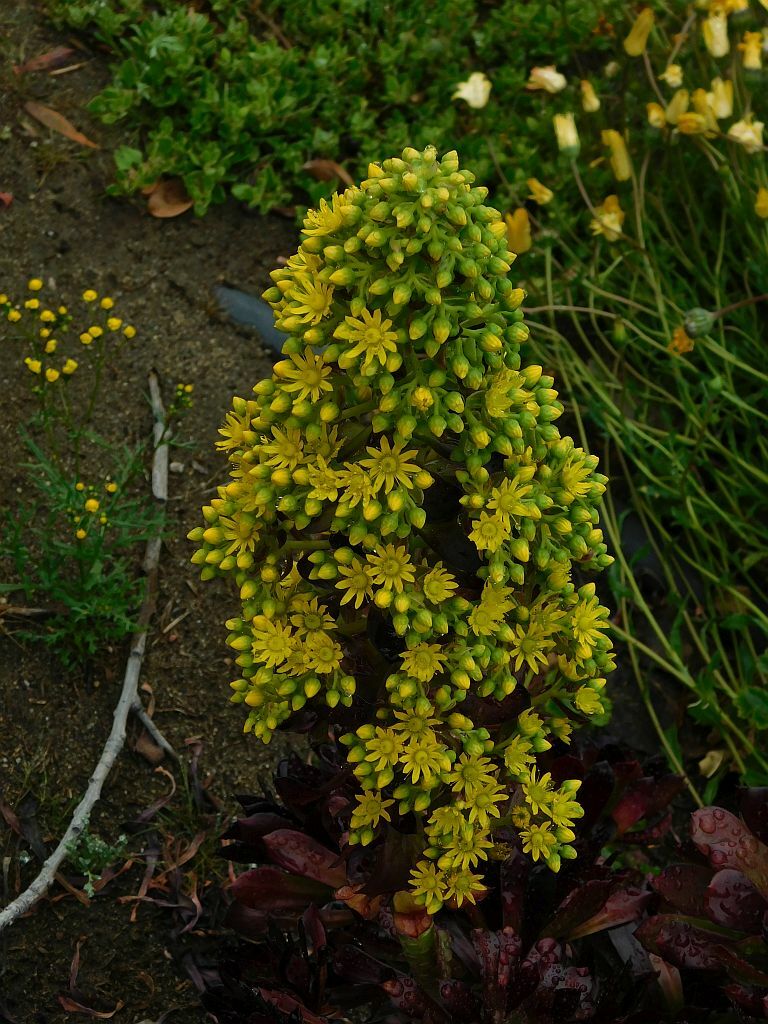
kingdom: Plantae
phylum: Tracheophyta
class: Magnoliopsida
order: Saxifragales
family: Crassulaceae
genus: Aeonium
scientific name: Aeonium arboreum
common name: Tree aeonium
